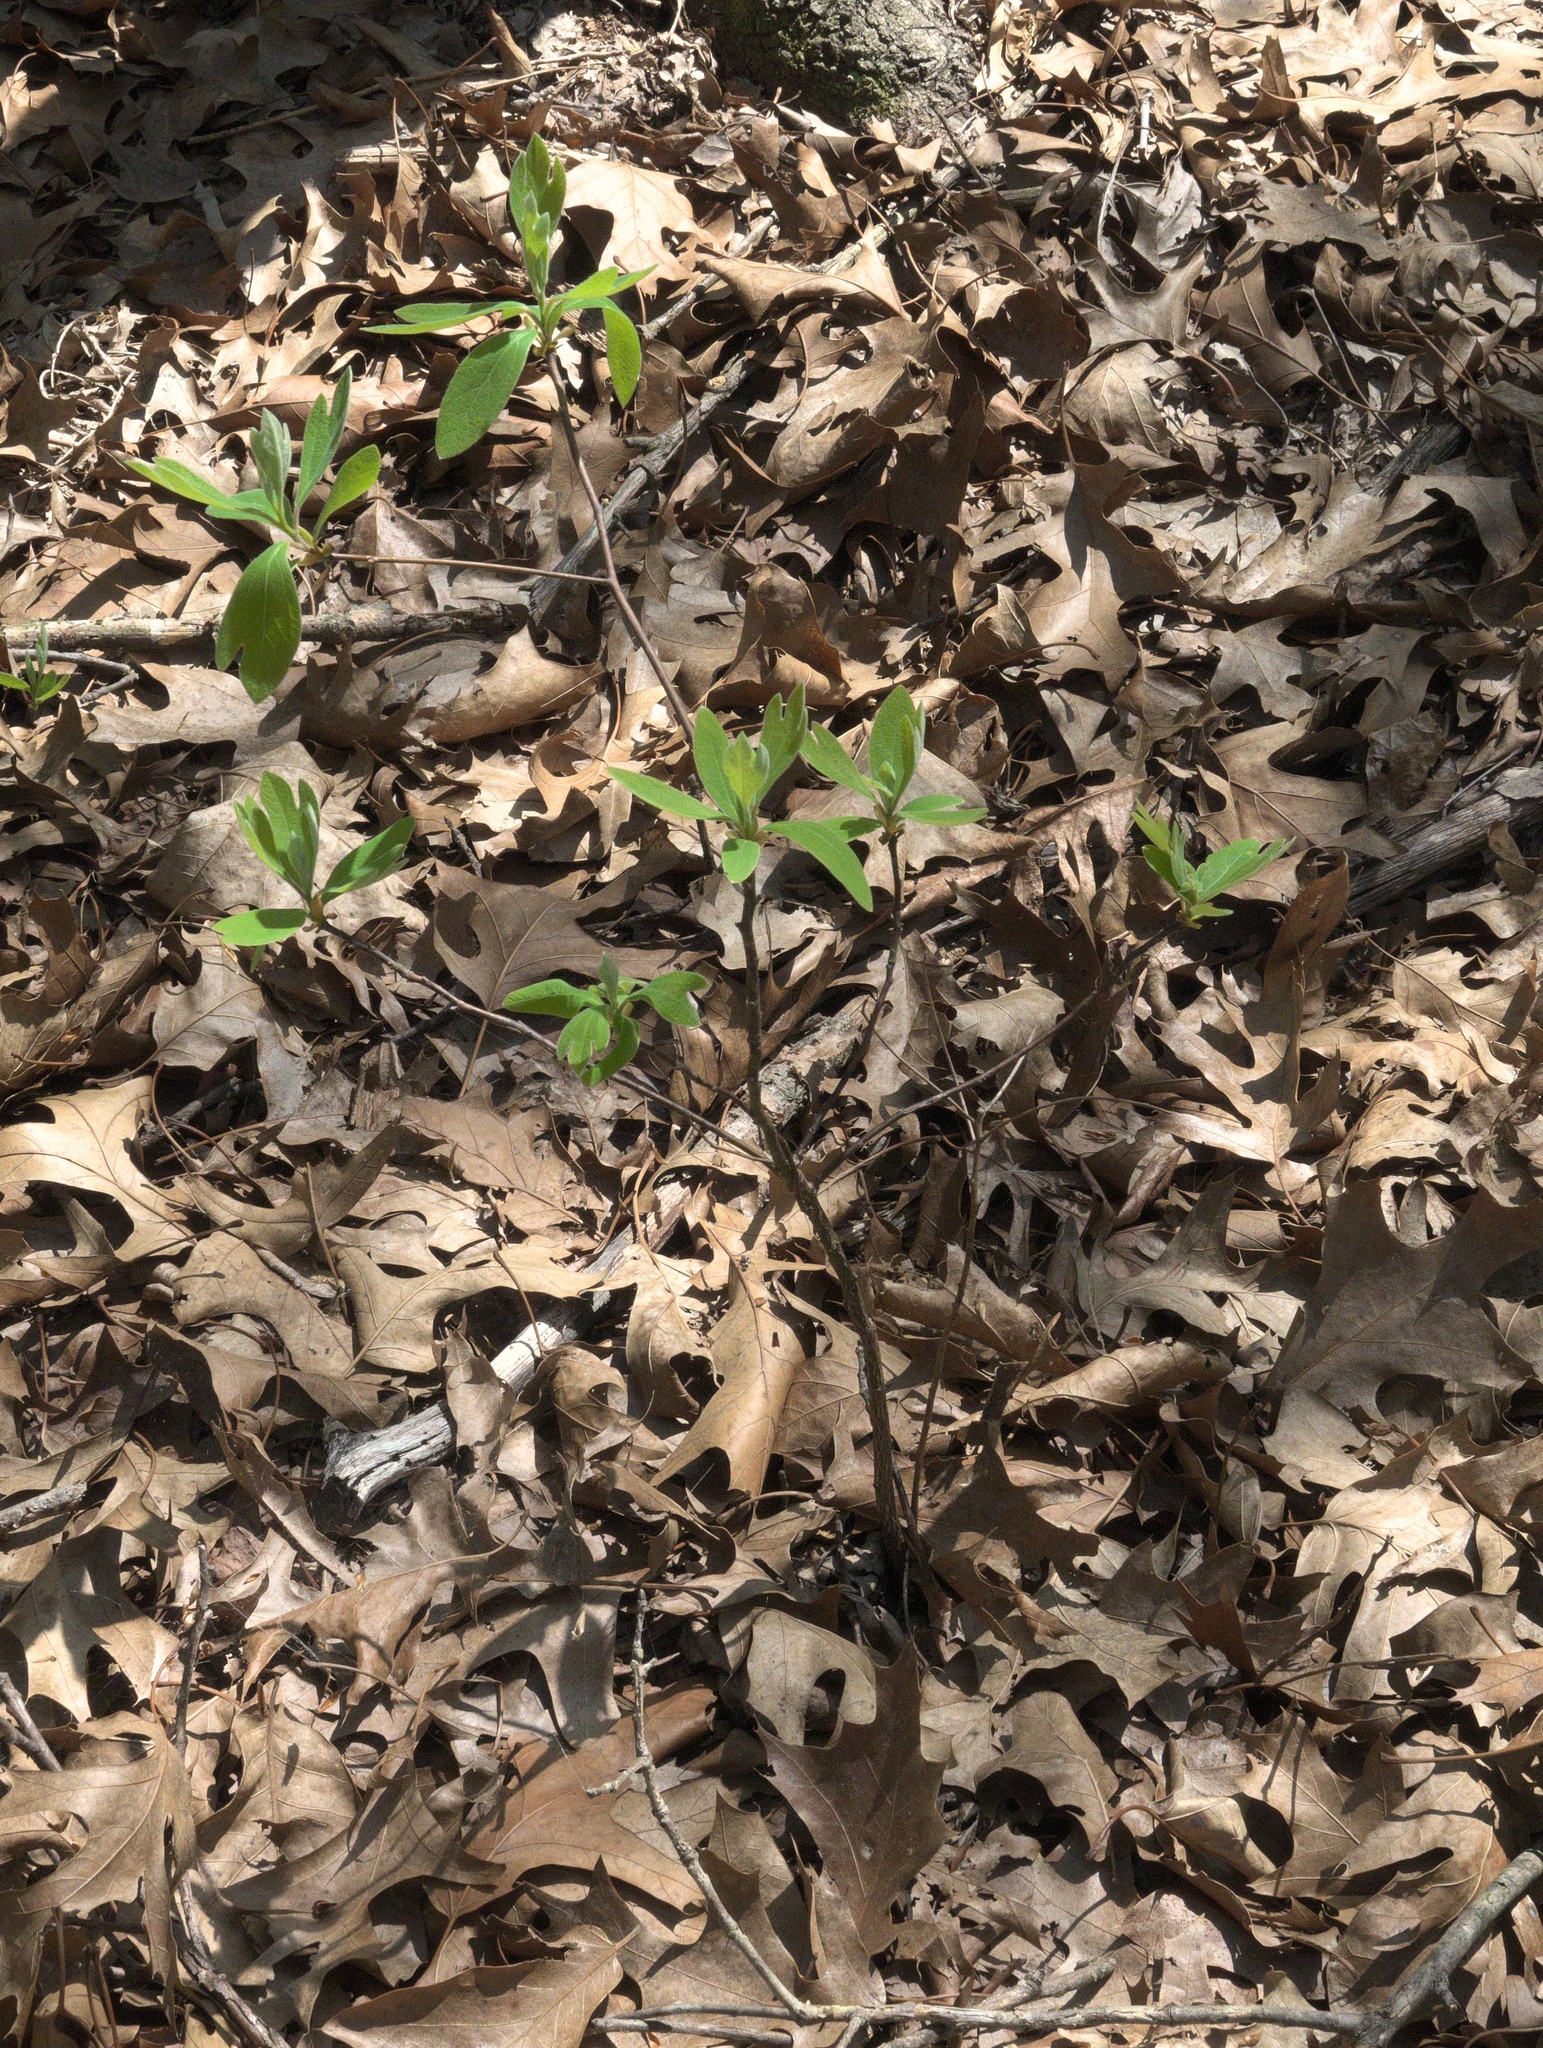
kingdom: Plantae
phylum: Tracheophyta
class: Magnoliopsida
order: Laurales
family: Lauraceae
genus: Sassafras
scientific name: Sassafras albidum
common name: Sassafras
